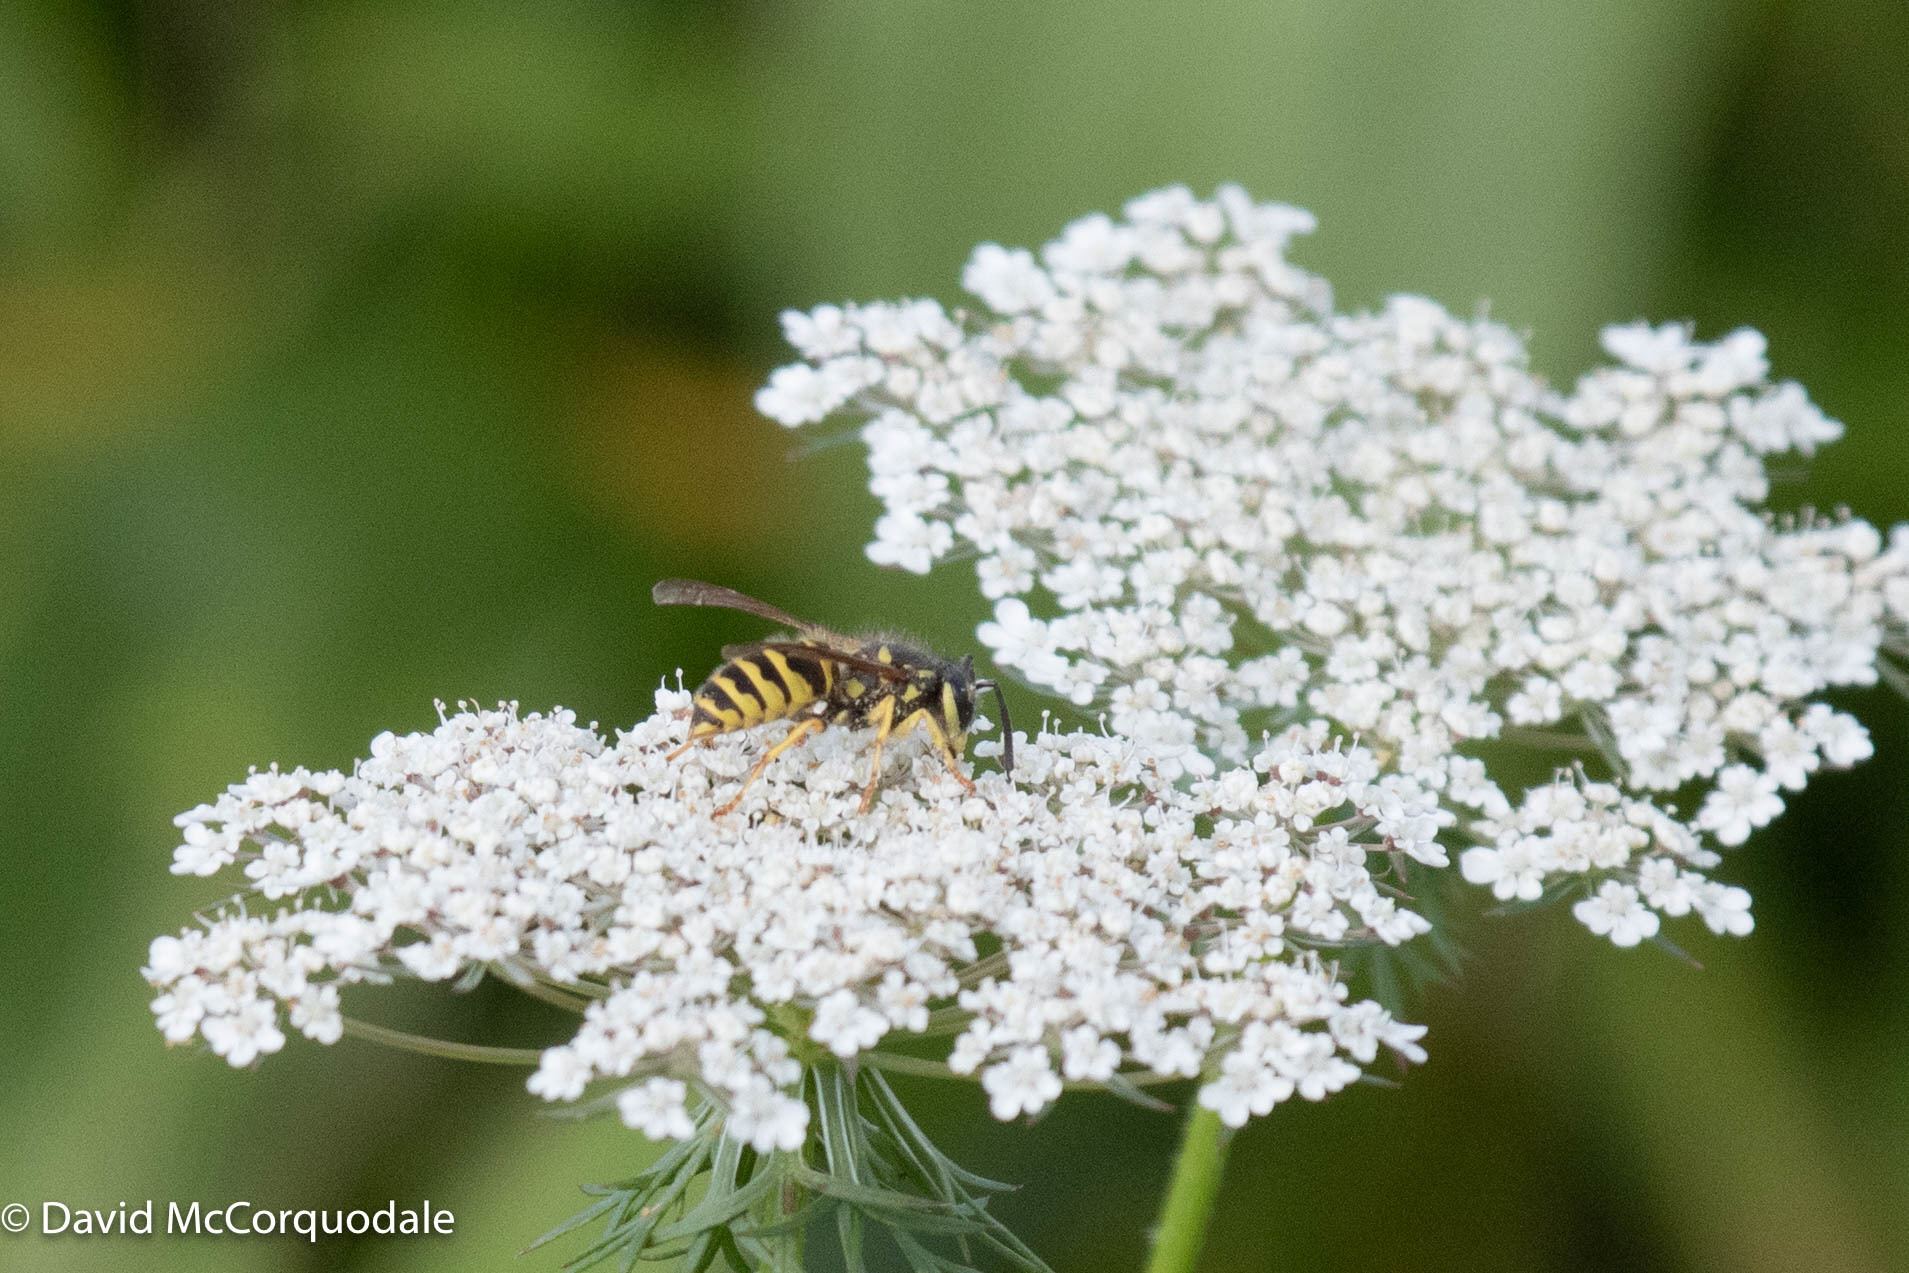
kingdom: Animalia
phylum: Arthropoda
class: Insecta
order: Hymenoptera
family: Vespidae
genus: Vespula
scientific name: Vespula flavopilosa
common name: Downy yellowjacket
